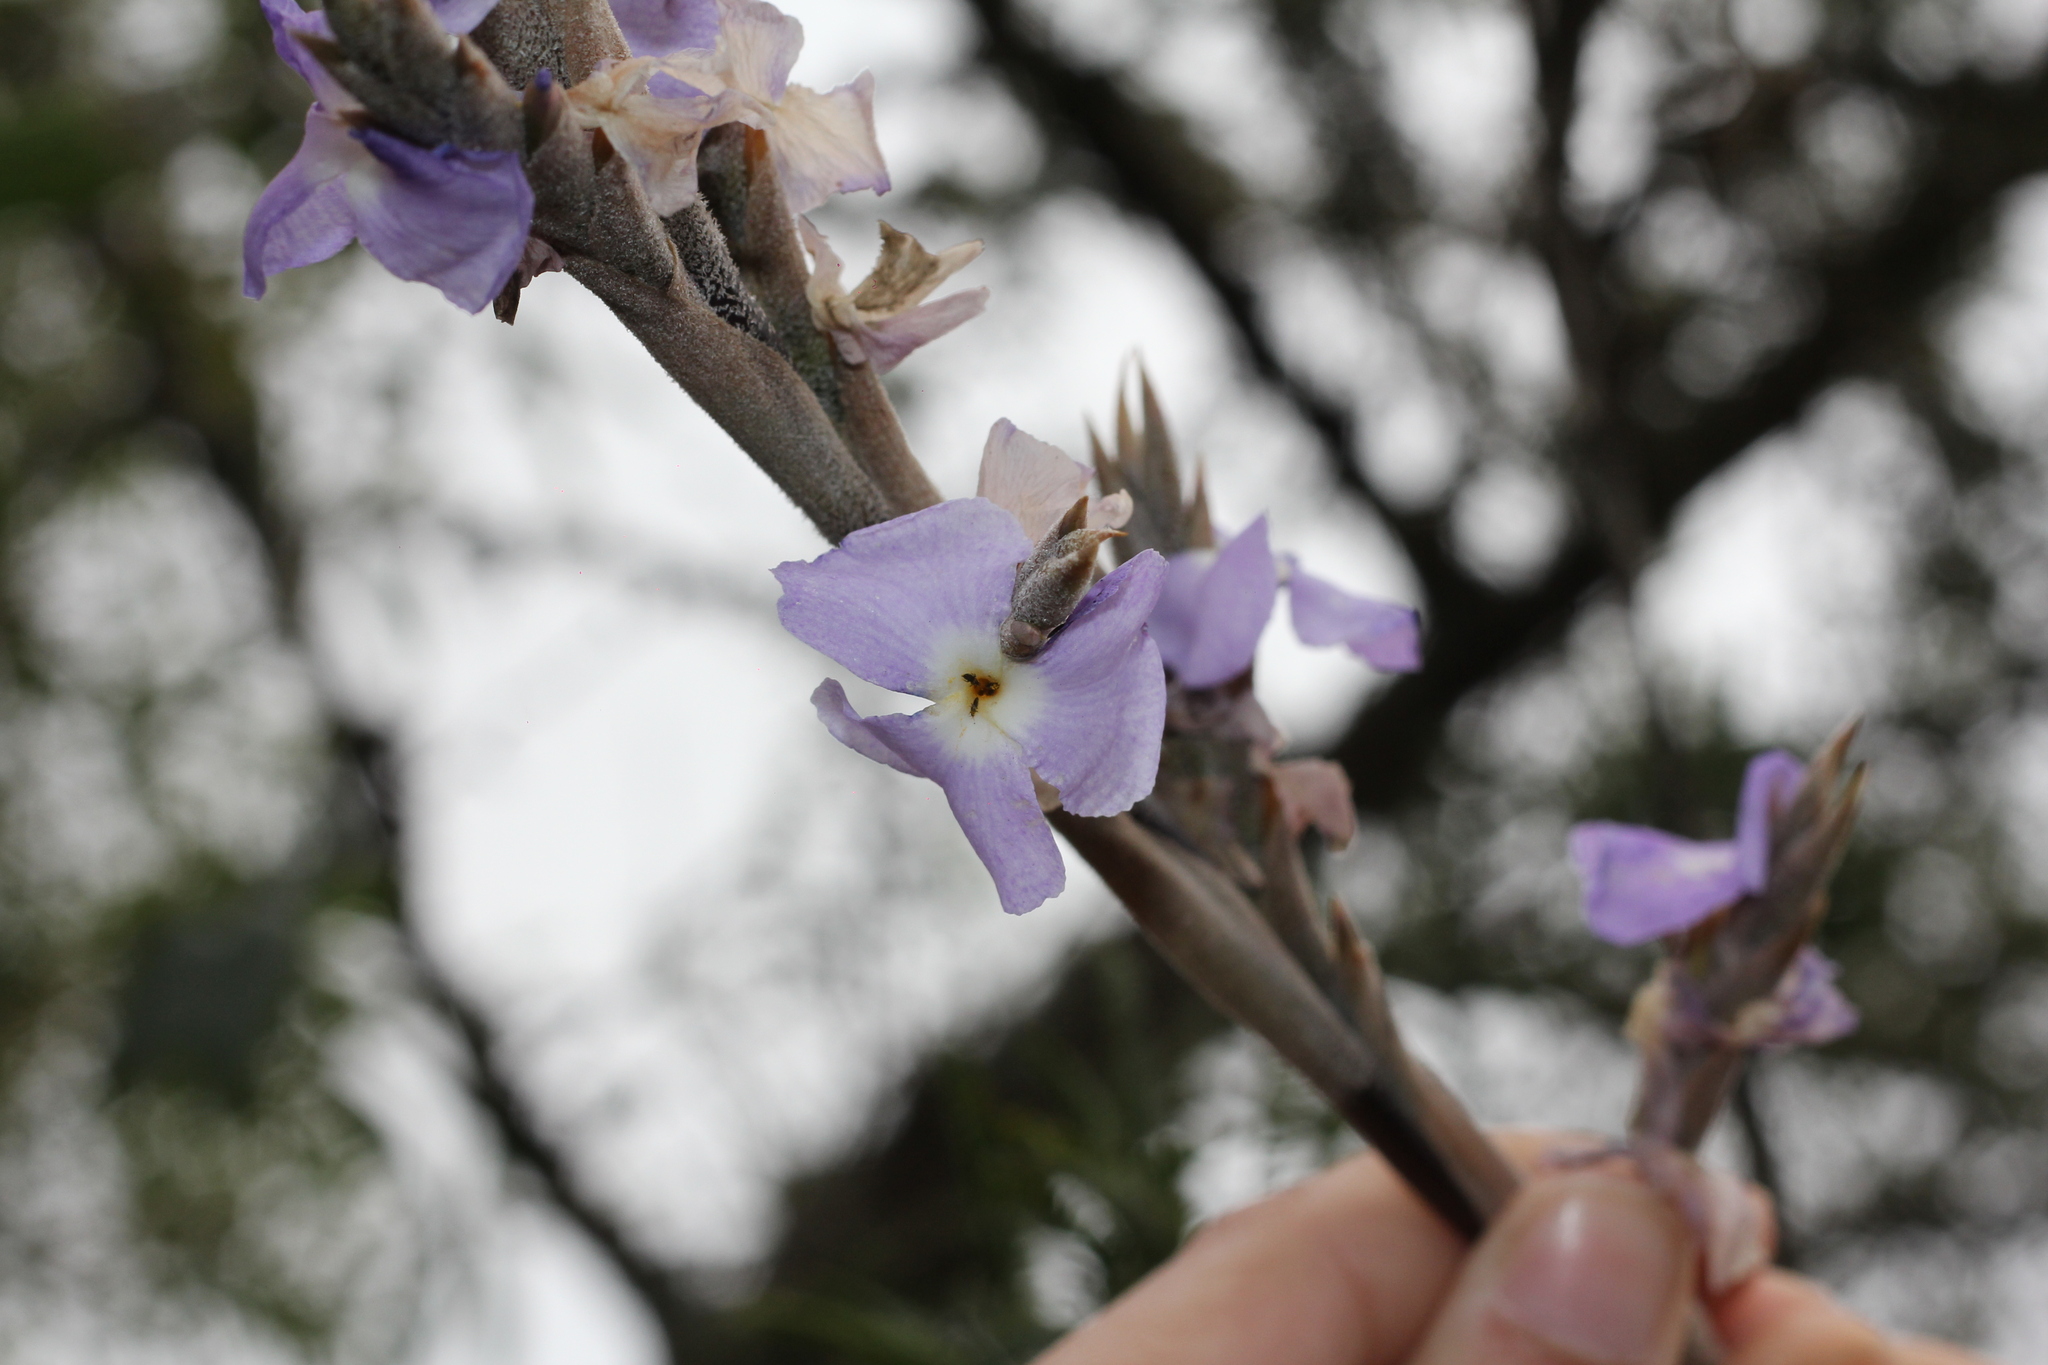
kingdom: Plantae
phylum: Tracheophyta
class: Liliopsida
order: Poales
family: Bromeliaceae
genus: Tillandsia
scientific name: Tillandsia duratii
